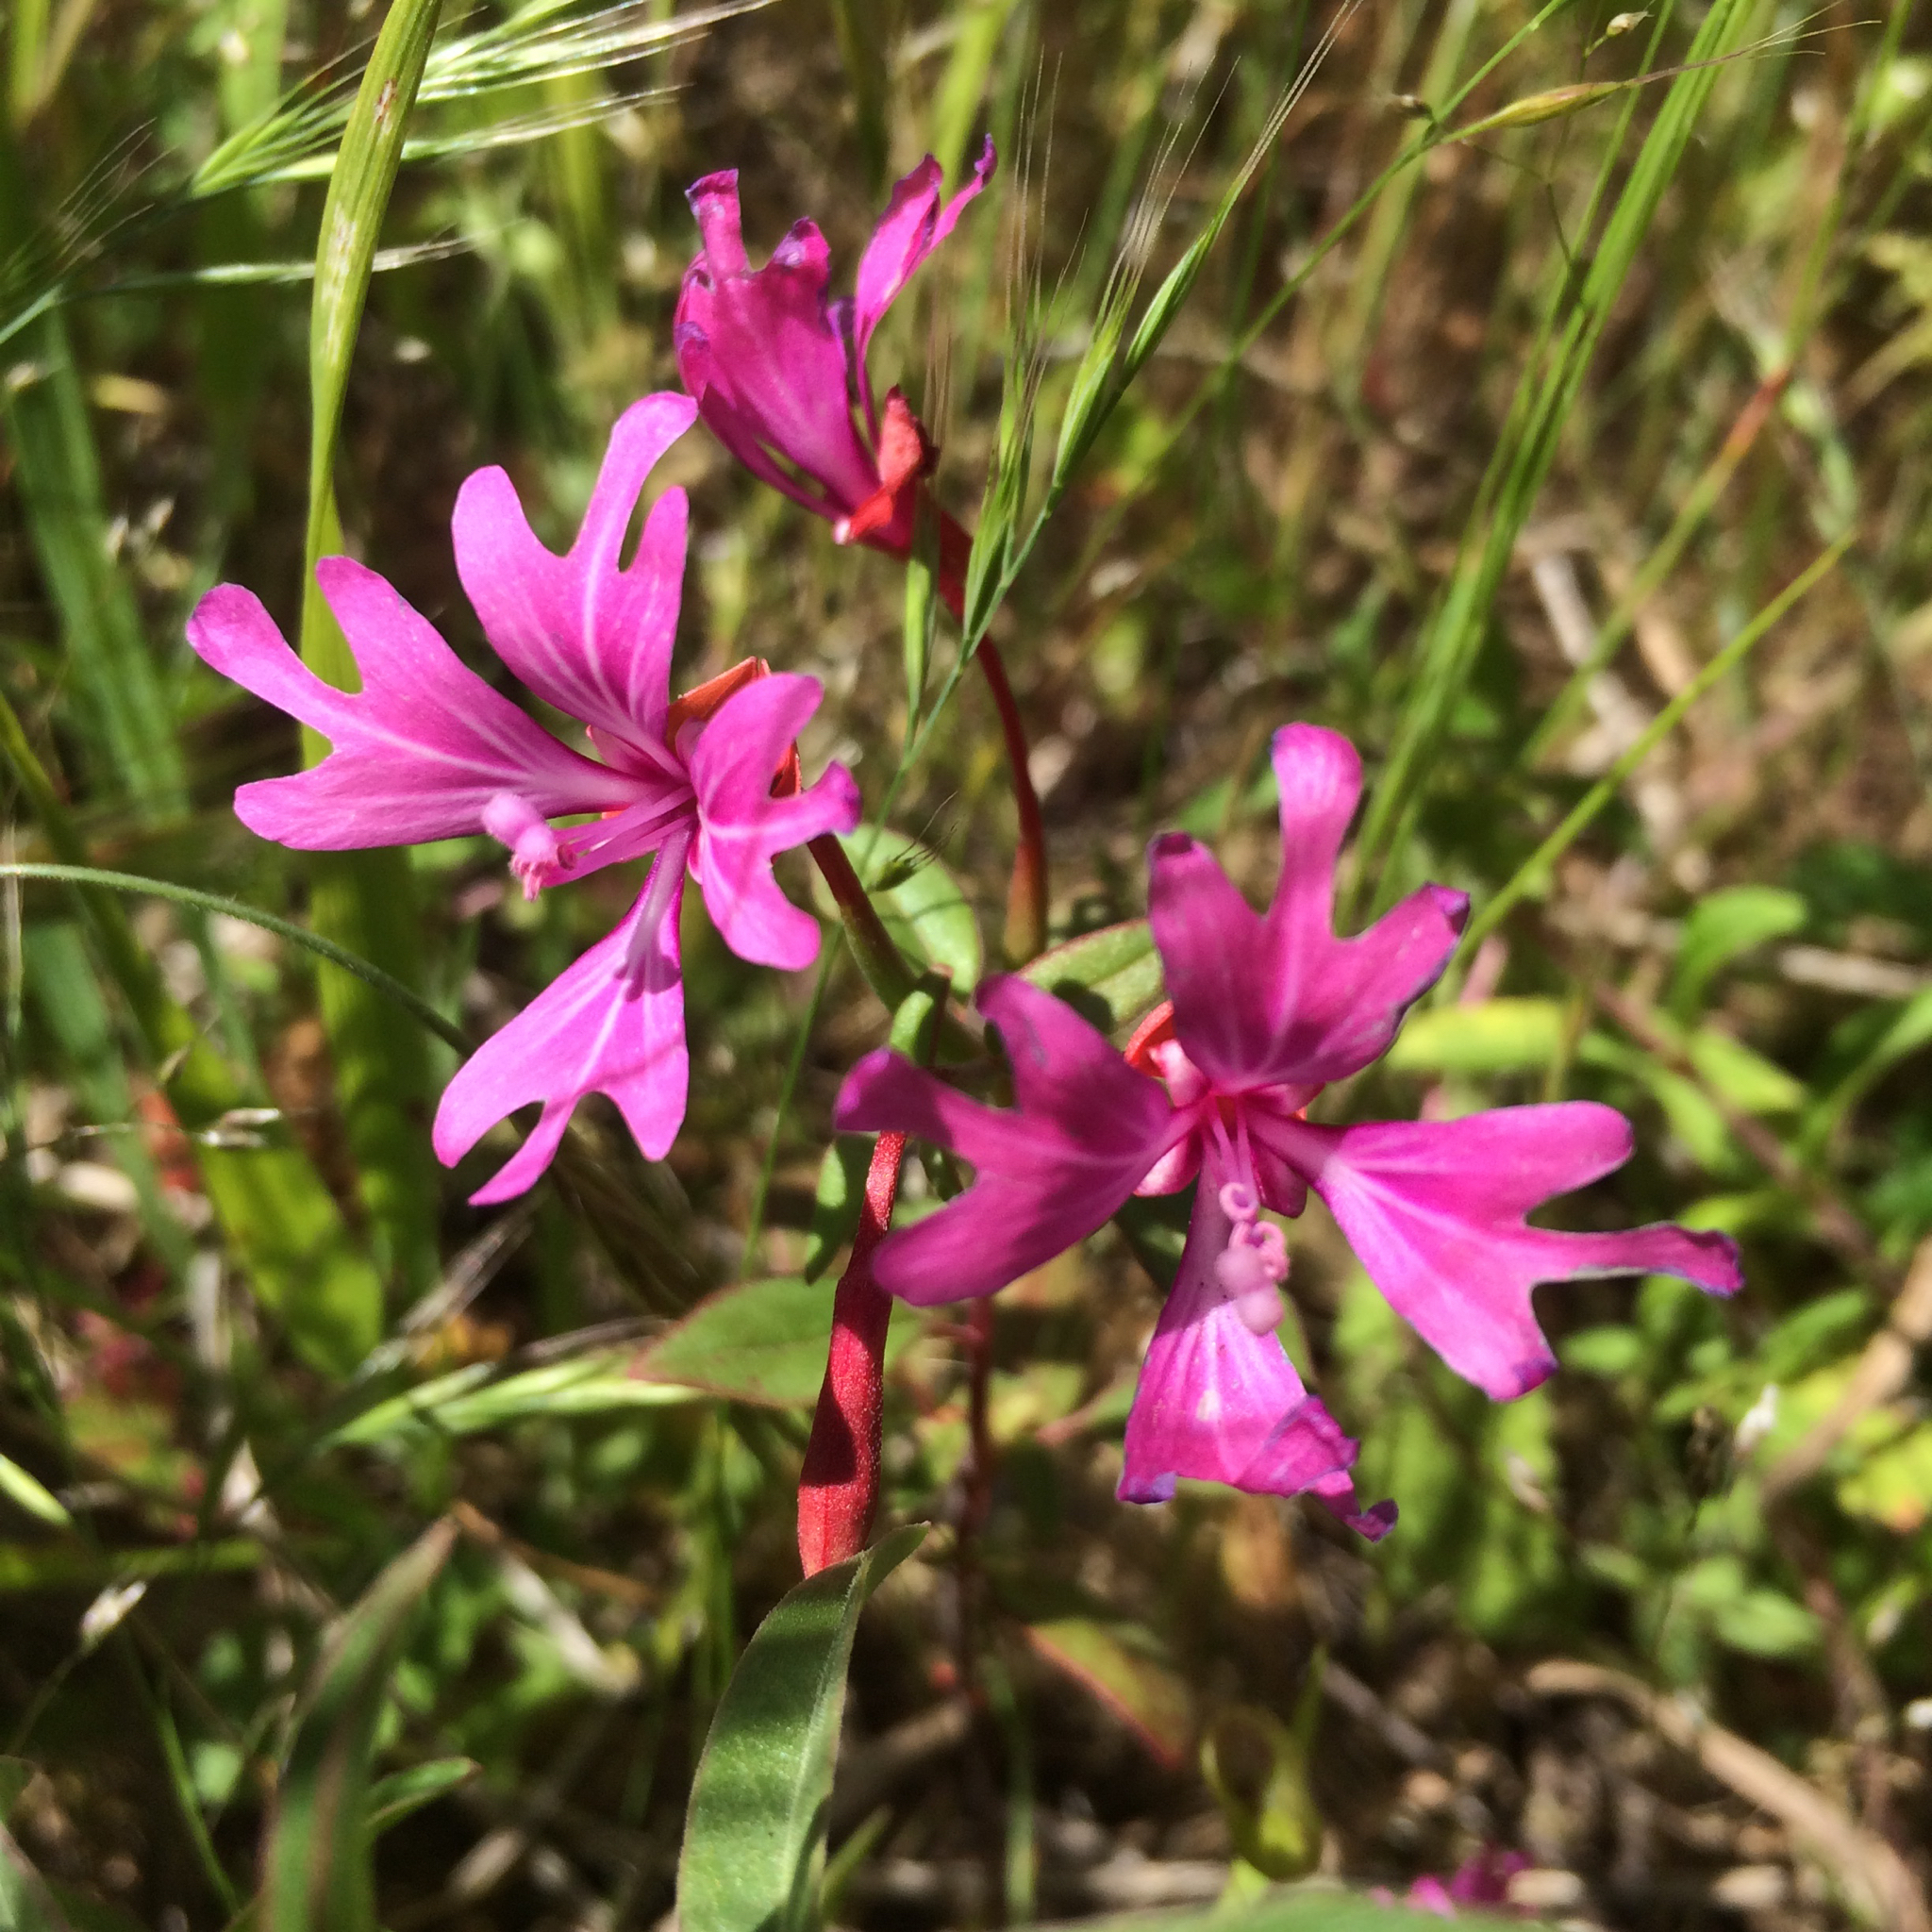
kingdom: Plantae
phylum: Tracheophyta
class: Magnoliopsida
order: Myrtales
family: Onagraceae
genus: Clarkia
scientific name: Clarkia concinna
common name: Red-ribbons
